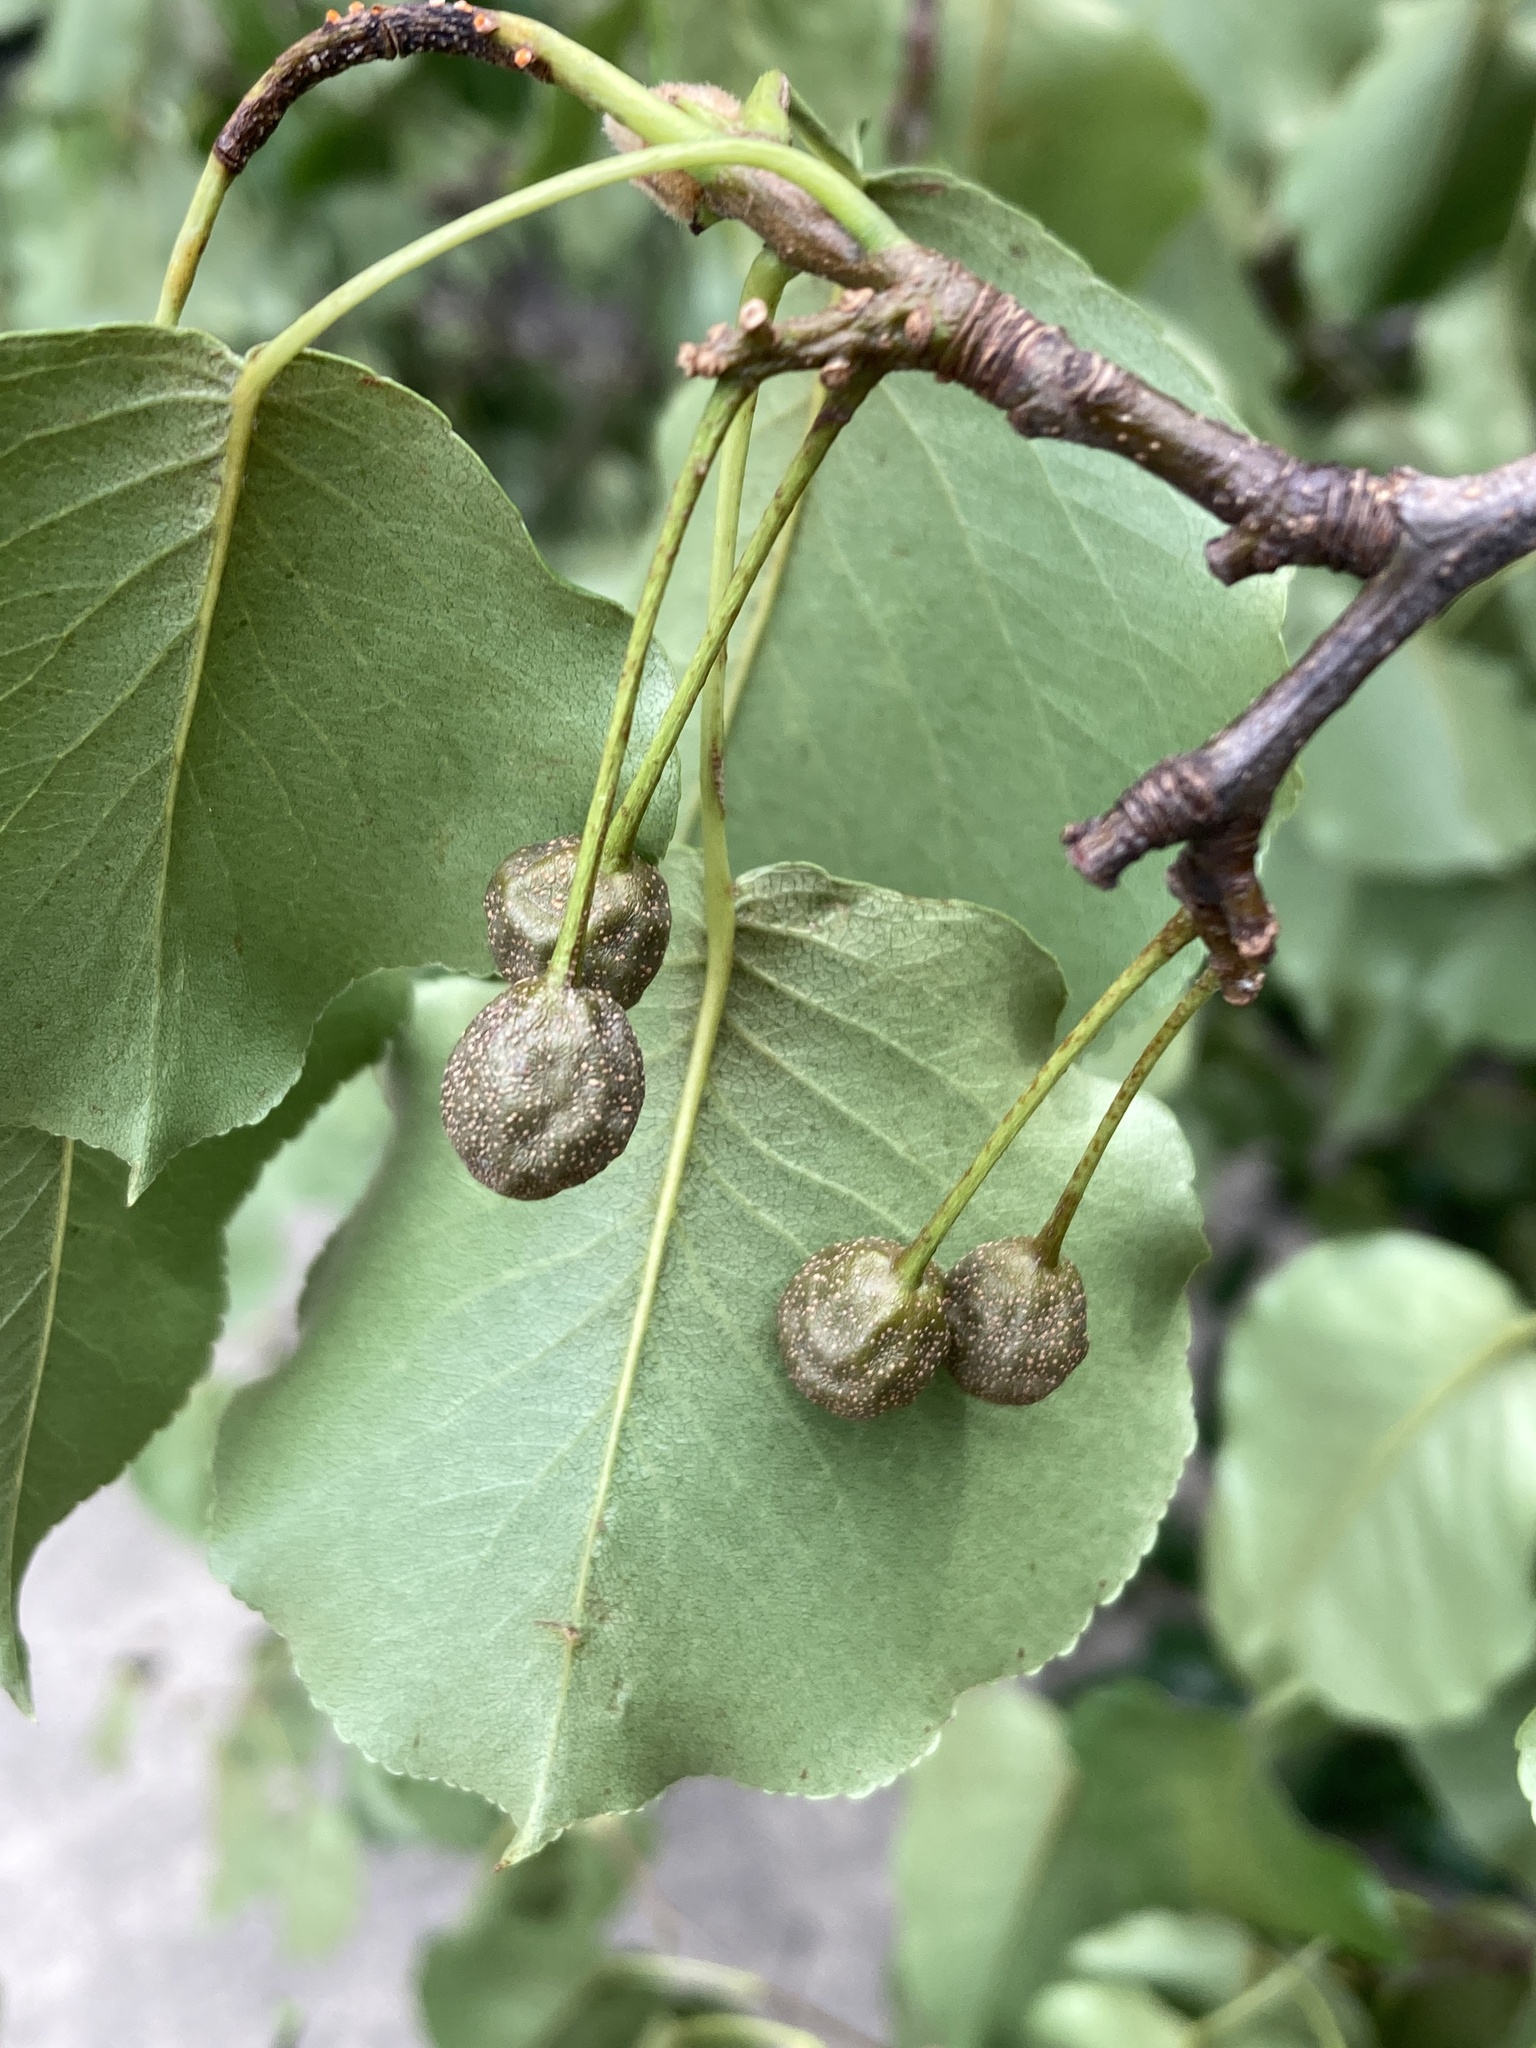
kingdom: Plantae
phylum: Tracheophyta
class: Magnoliopsida
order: Rosales
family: Rosaceae
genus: Pyrus
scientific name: Pyrus calleryana
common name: Callery pear
